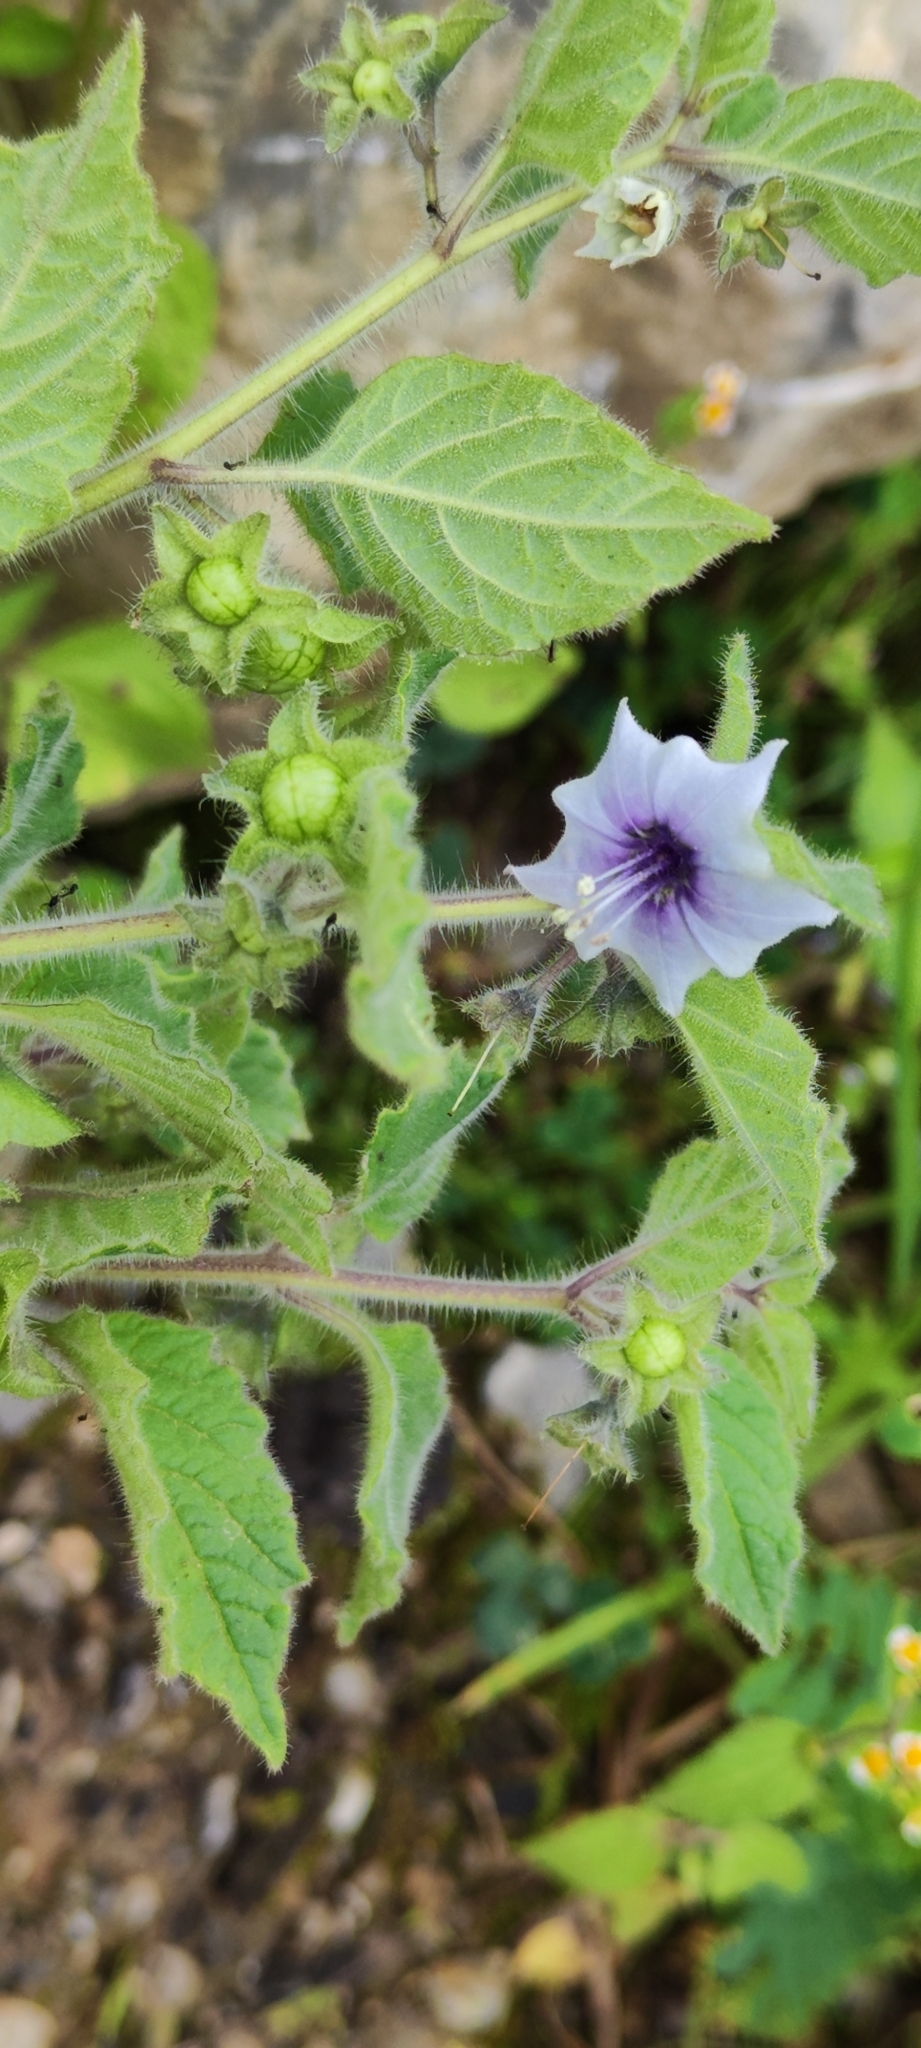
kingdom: Plantae
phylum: Tracheophyta
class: Magnoliopsida
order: Solanales
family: Solanaceae
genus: Jaltomata
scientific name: Jaltomata sinuosa
